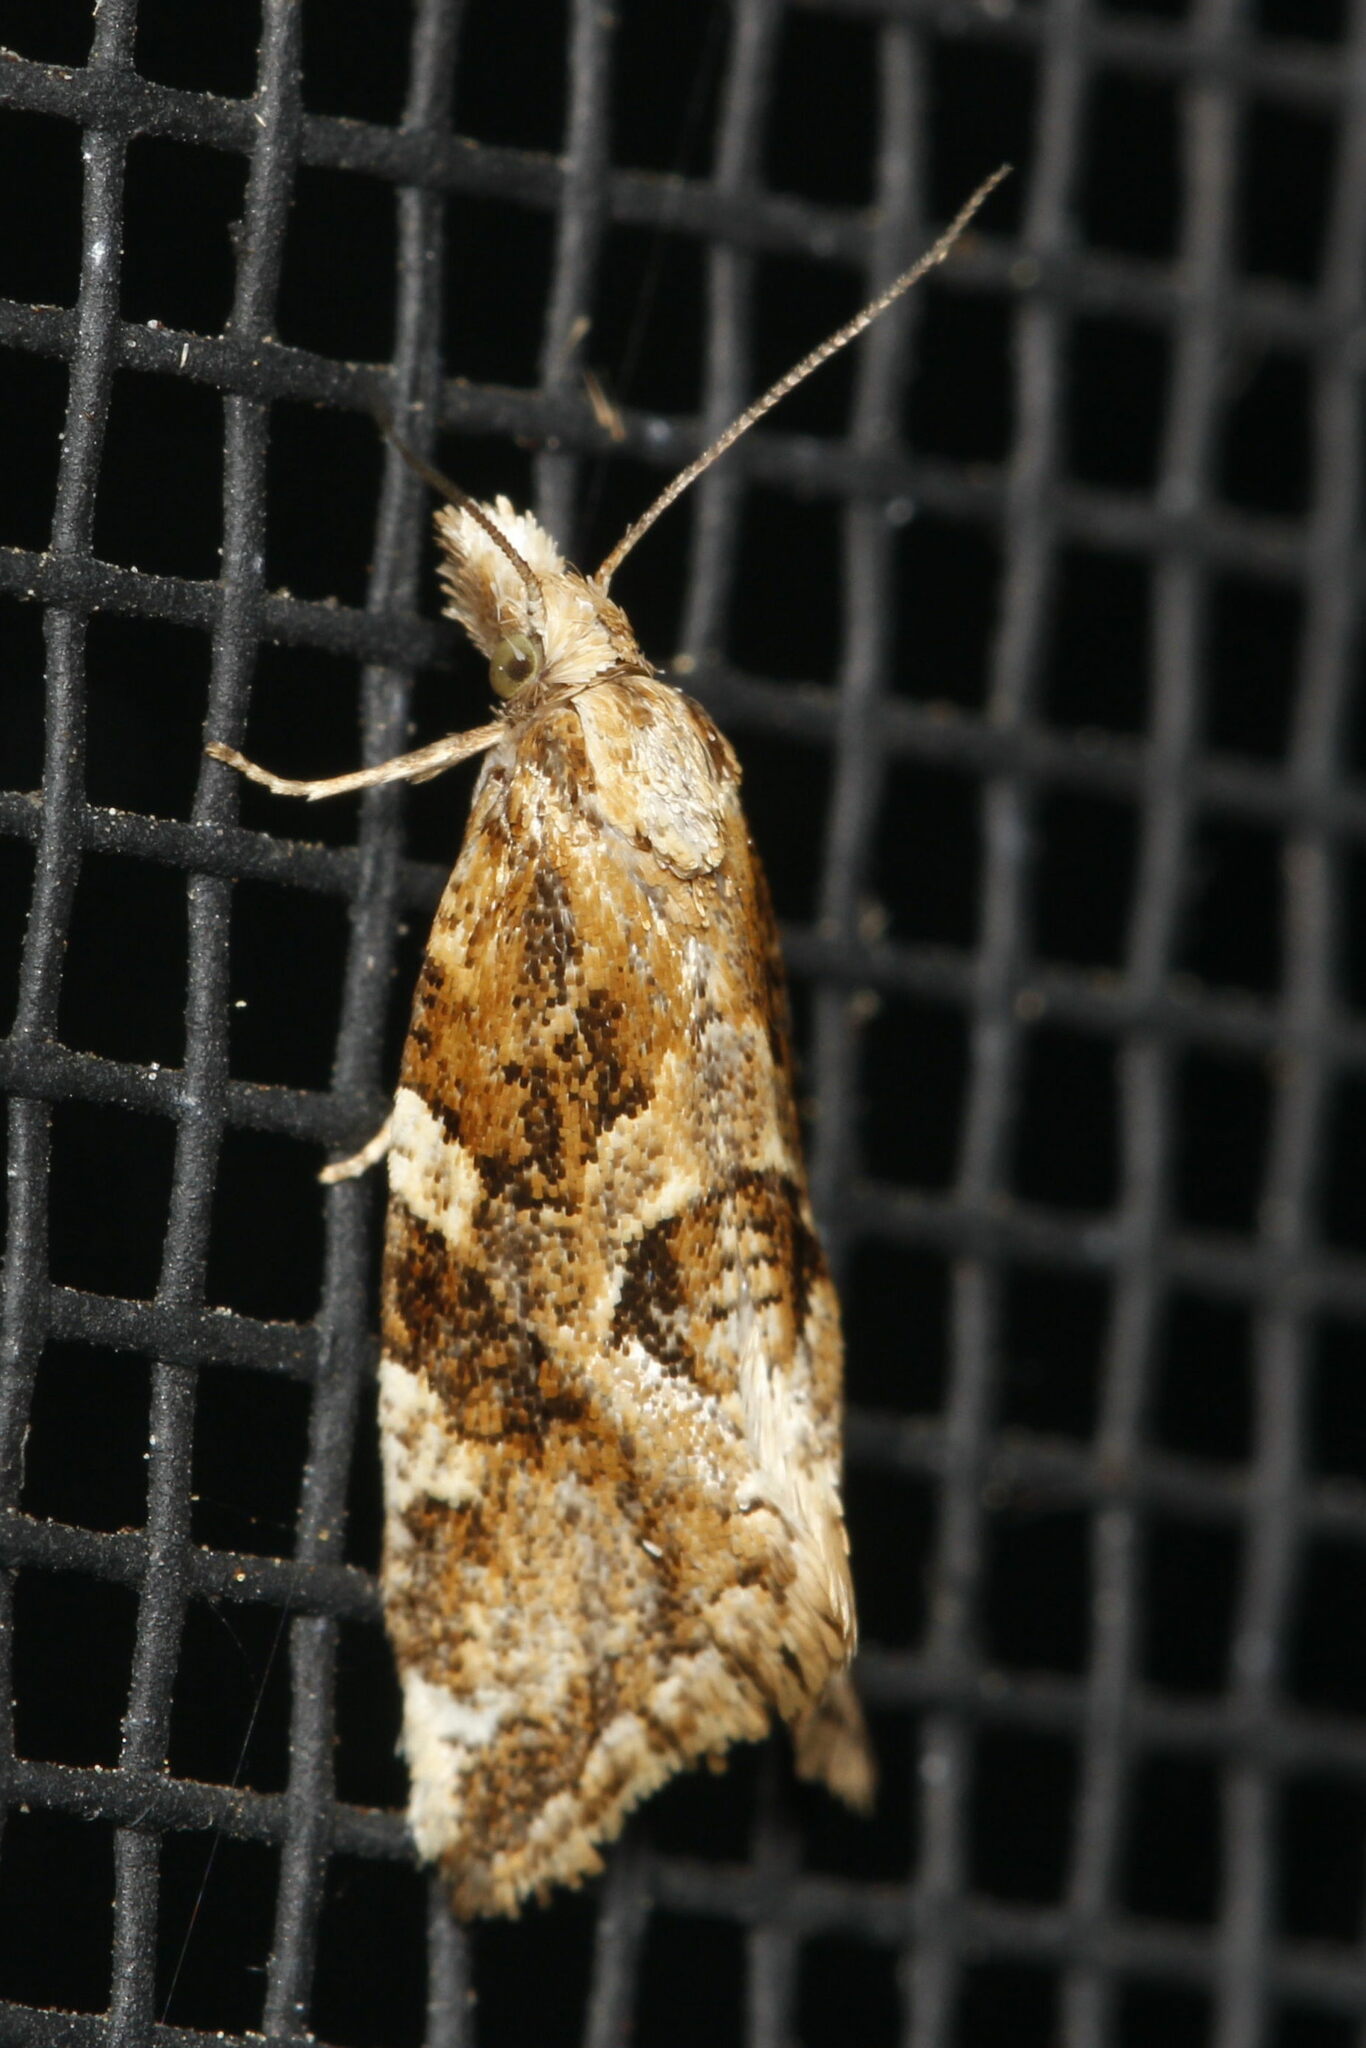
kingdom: Animalia
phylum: Arthropoda
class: Insecta
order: Lepidoptera
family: Tortricidae
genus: Aethes
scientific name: Aethes sexdentata
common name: Six-toothed aethes
